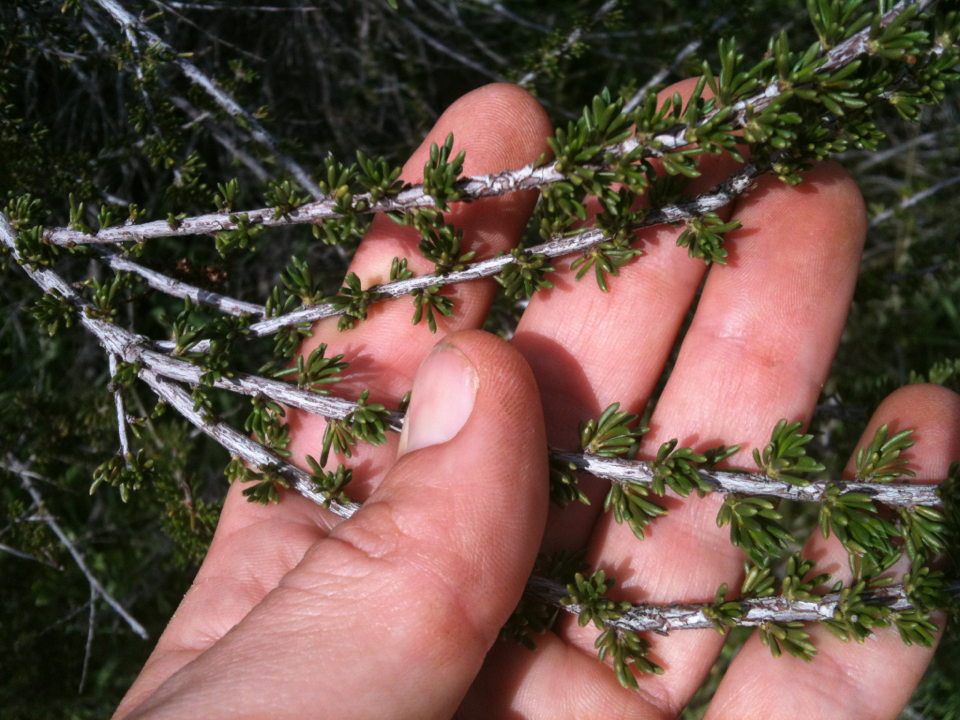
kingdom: Plantae
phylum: Tracheophyta
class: Magnoliopsida
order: Rosales
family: Rosaceae
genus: Adenostoma
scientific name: Adenostoma fasciculatum
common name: Chamise
